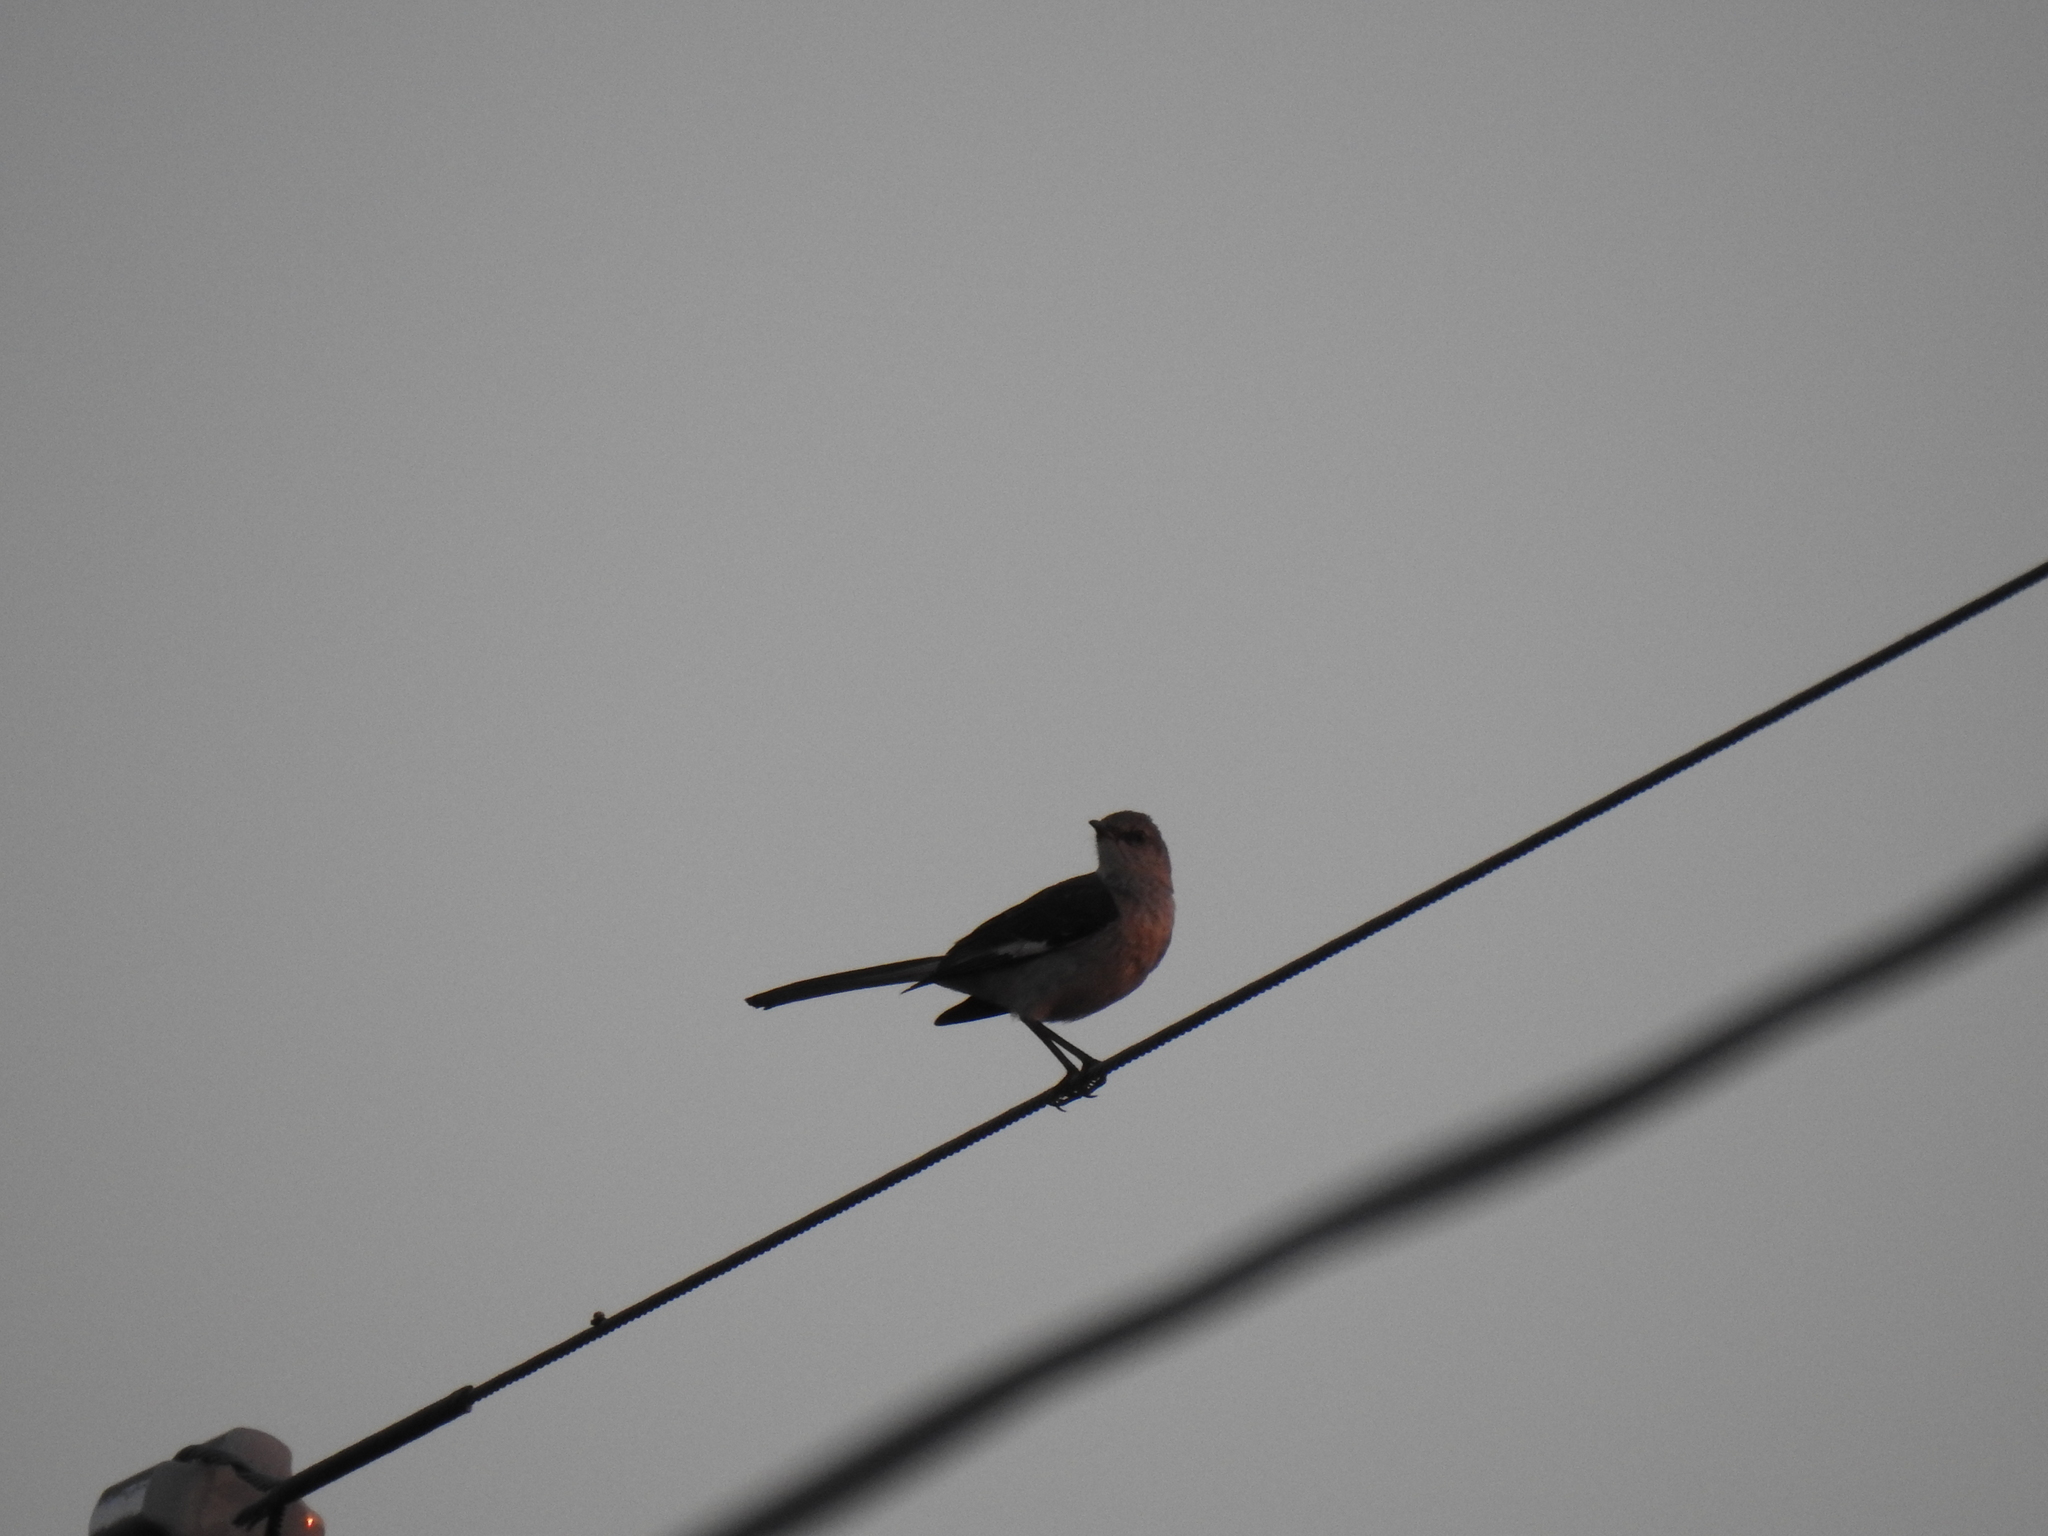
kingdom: Animalia
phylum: Chordata
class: Aves
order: Passeriformes
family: Mimidae
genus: Mimus
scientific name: Mimus polyglottos
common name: Northern mockingbird
